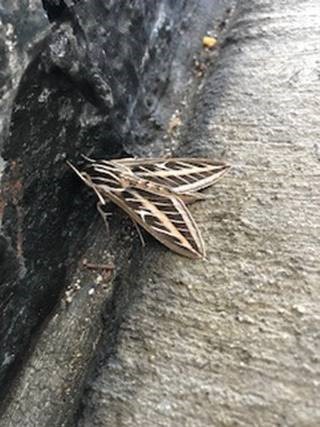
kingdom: Animalia
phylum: Arthropoda
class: Insecta
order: Lepidoptera
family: Sphingidae
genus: Hyles
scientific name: Hyles lineata
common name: White-lined sphinx
